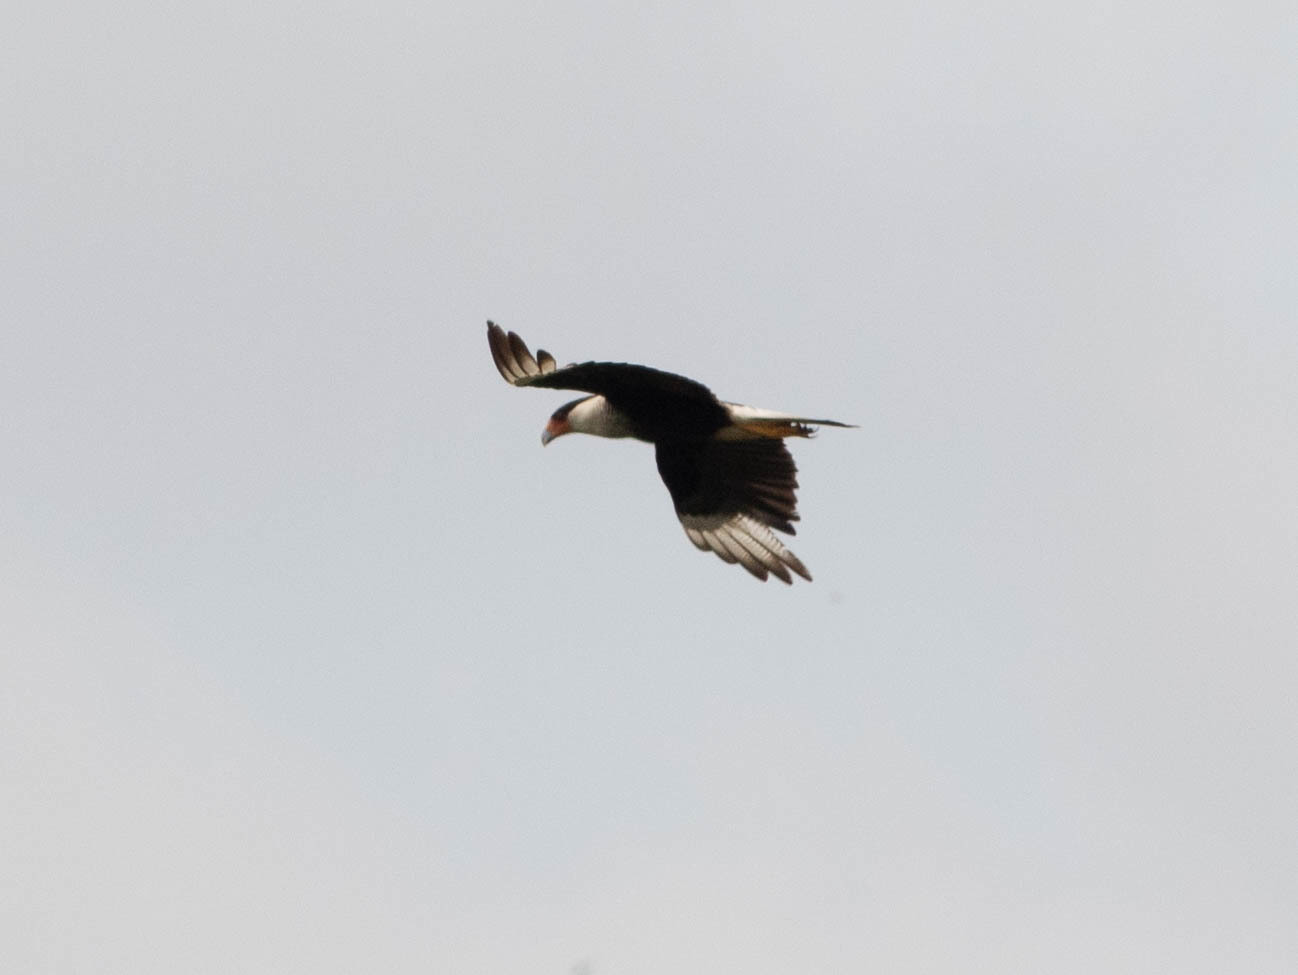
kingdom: Animalia
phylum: Chordata
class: Aves
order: Falconiformes
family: Falconidae
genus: Caracara
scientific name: Caracara plancus
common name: Southern caracara
